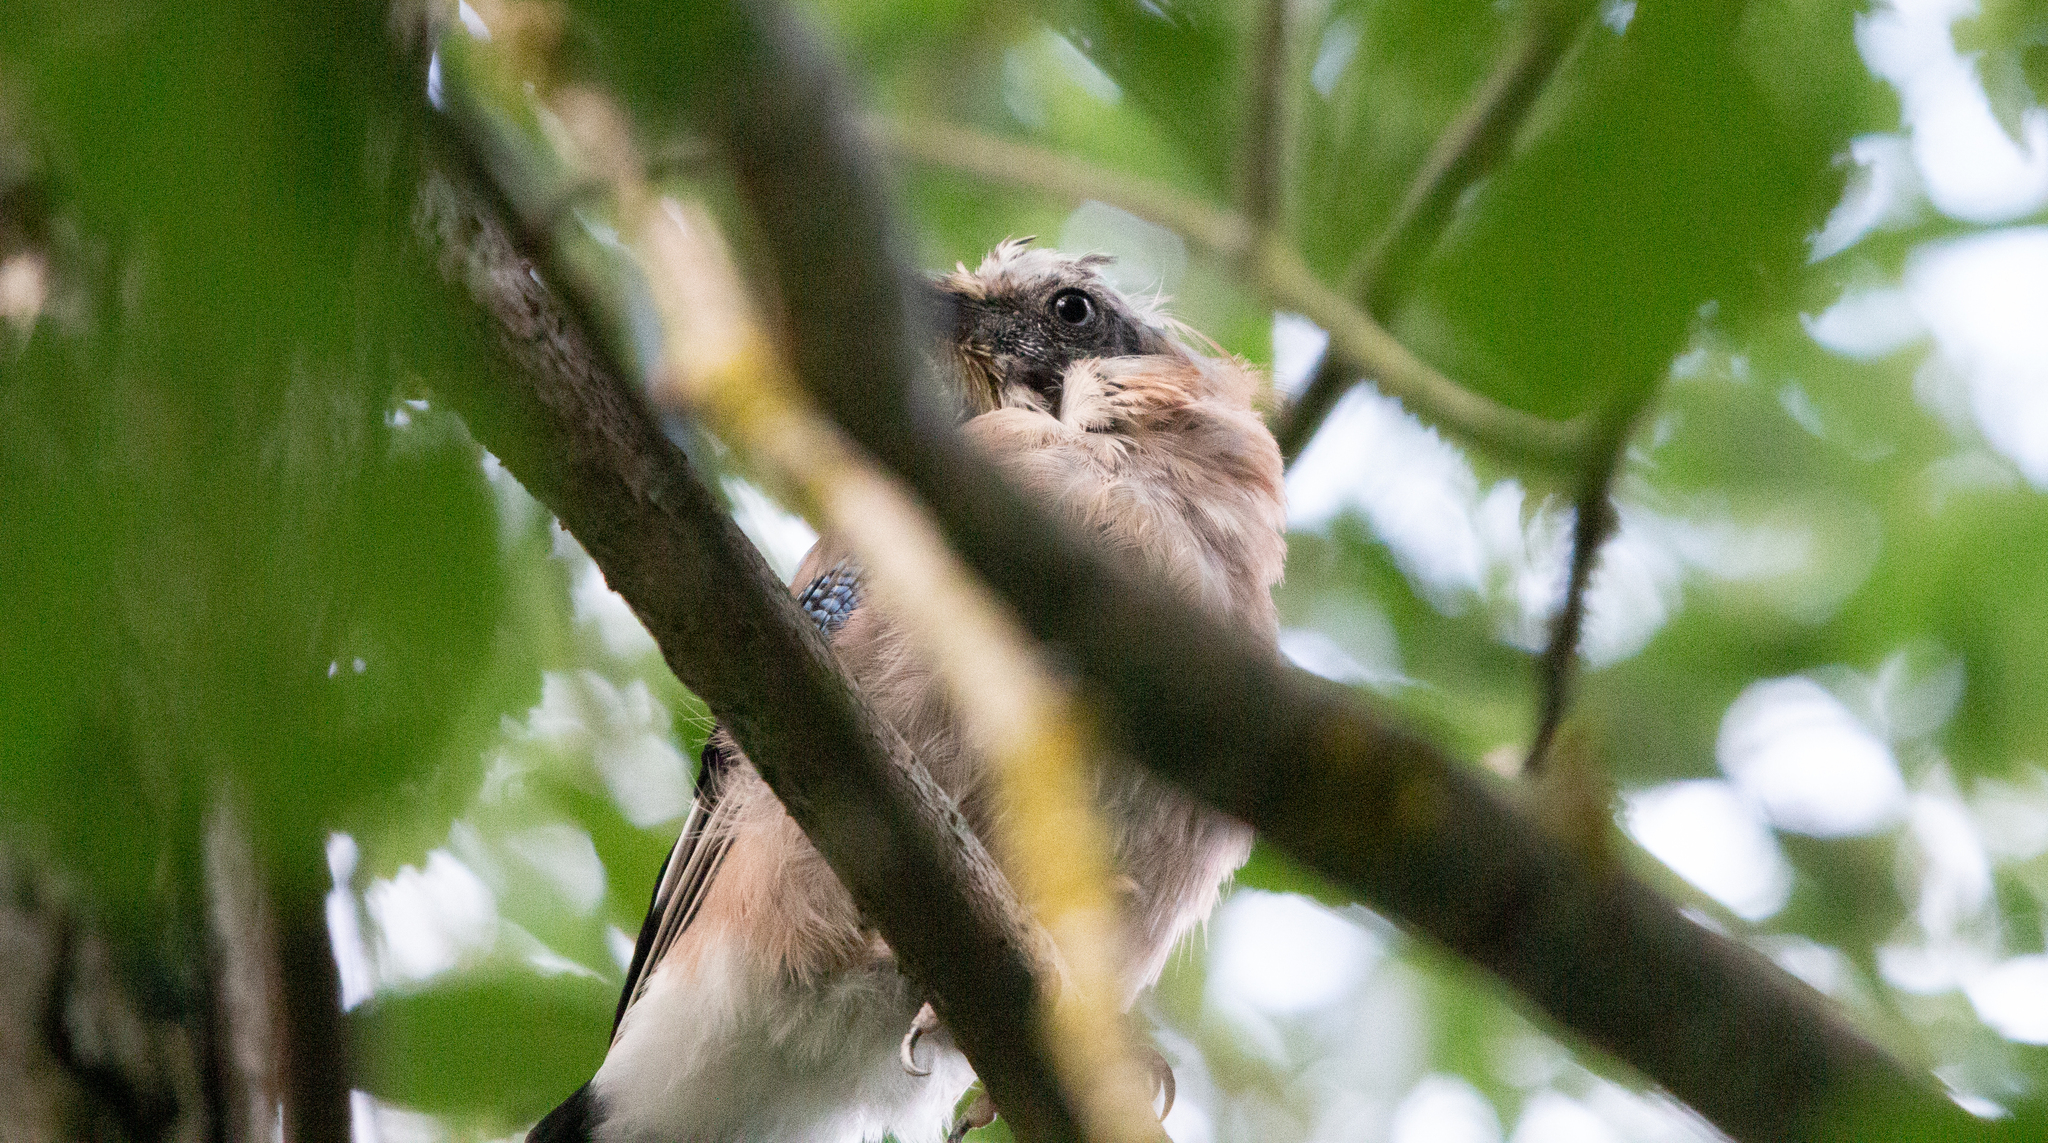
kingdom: Animalia
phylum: Chordata
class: Aves
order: Passeriformes
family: Corvidae
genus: Garrulus
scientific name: Garrulus glandarius
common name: Eurasian jay
